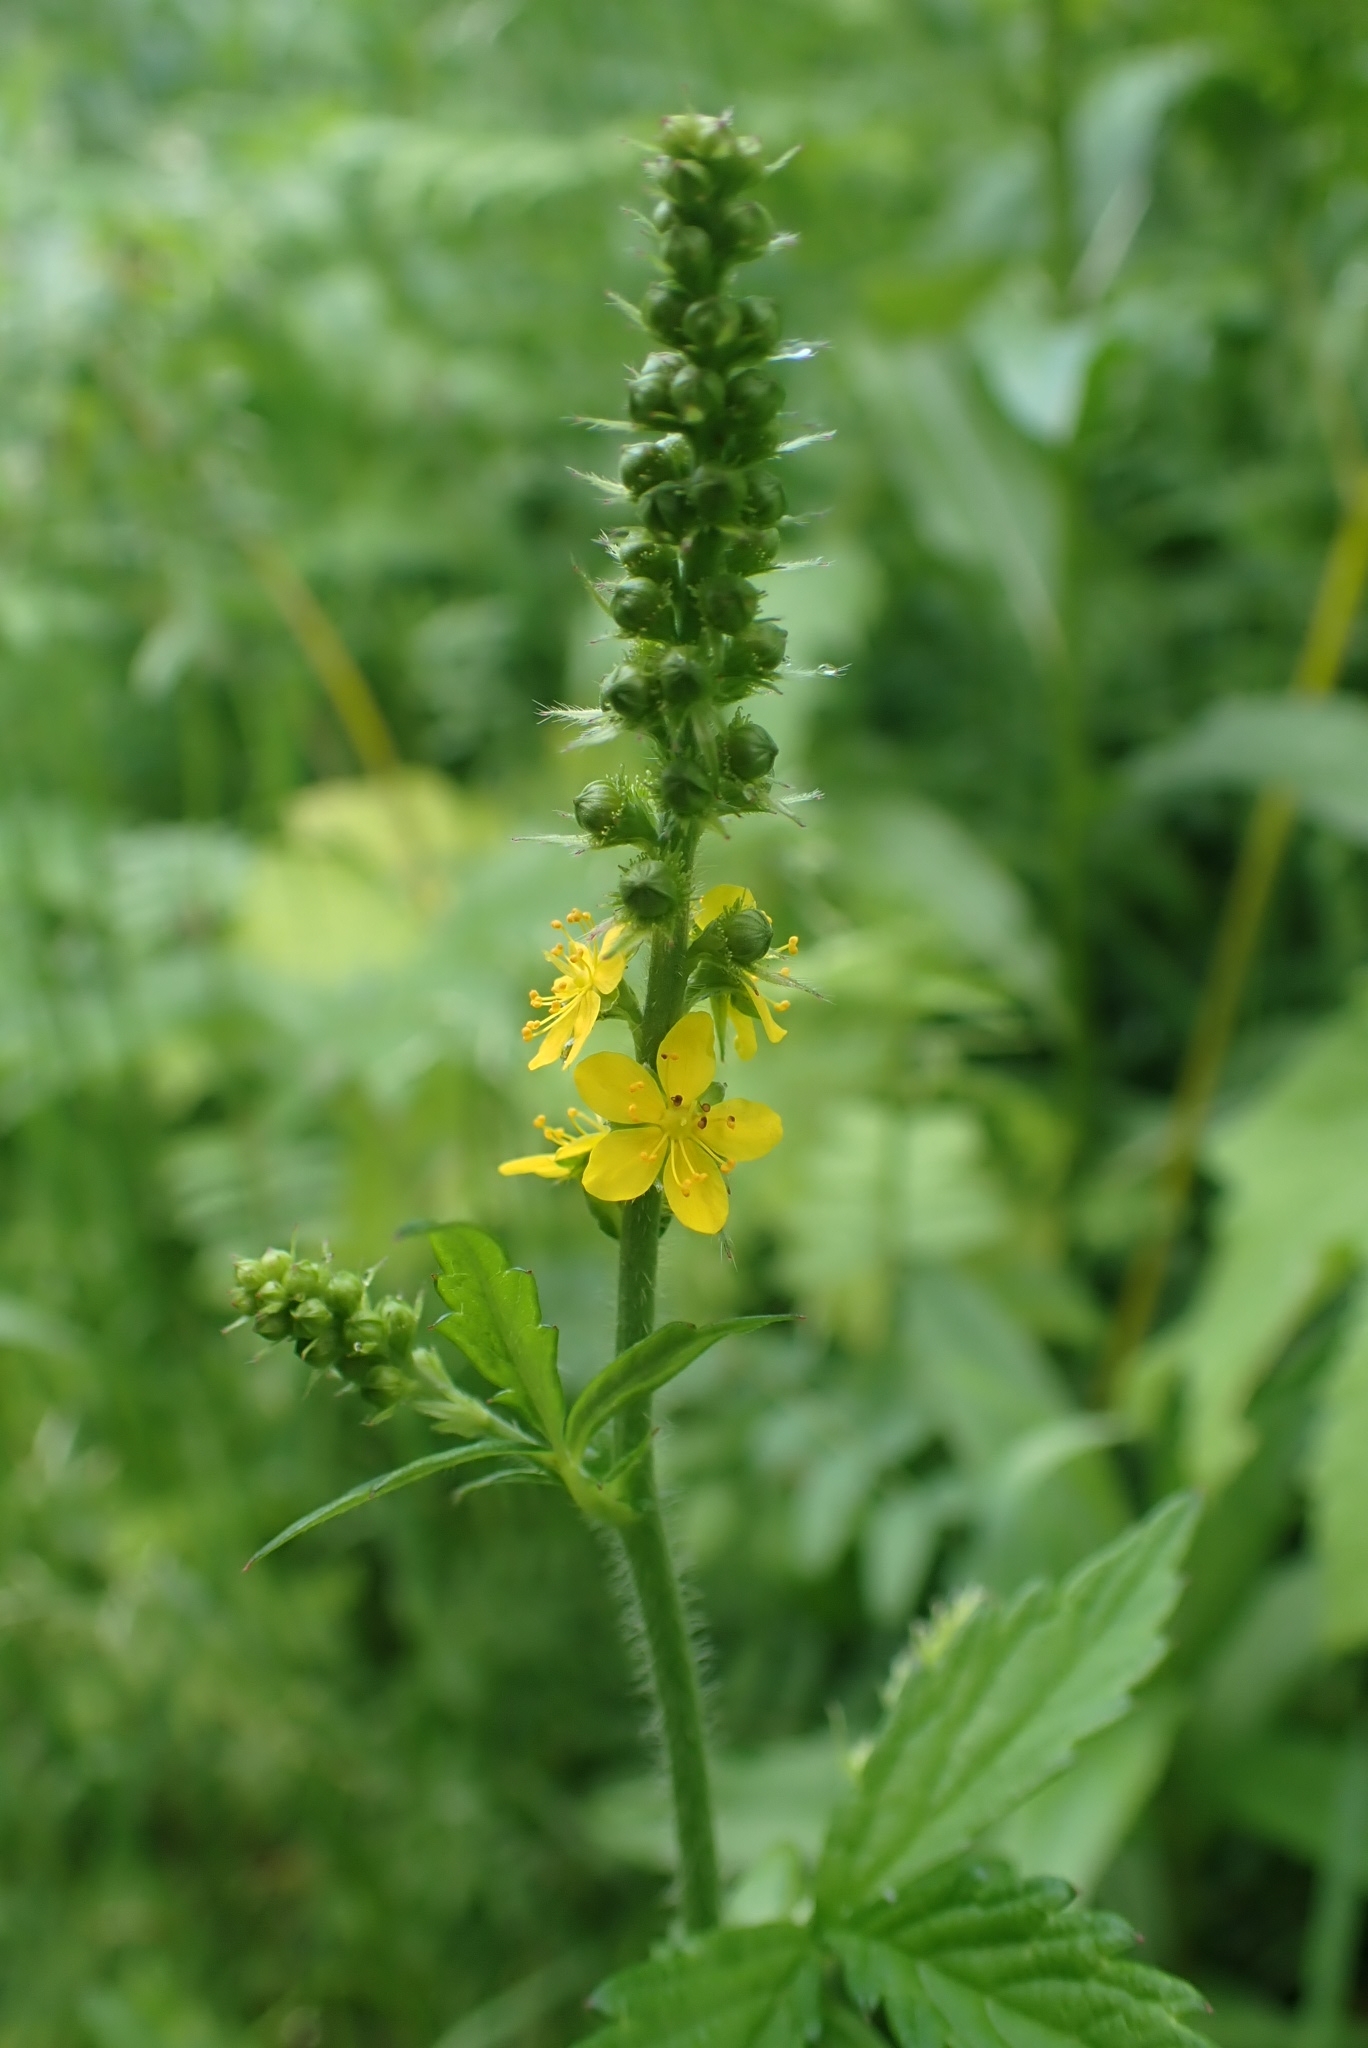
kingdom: Plantae
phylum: Tracheophyta
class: Magnoliopsida
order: Rosales
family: Rosaceae
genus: Agrimonia
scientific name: Agrimonia pilosa
